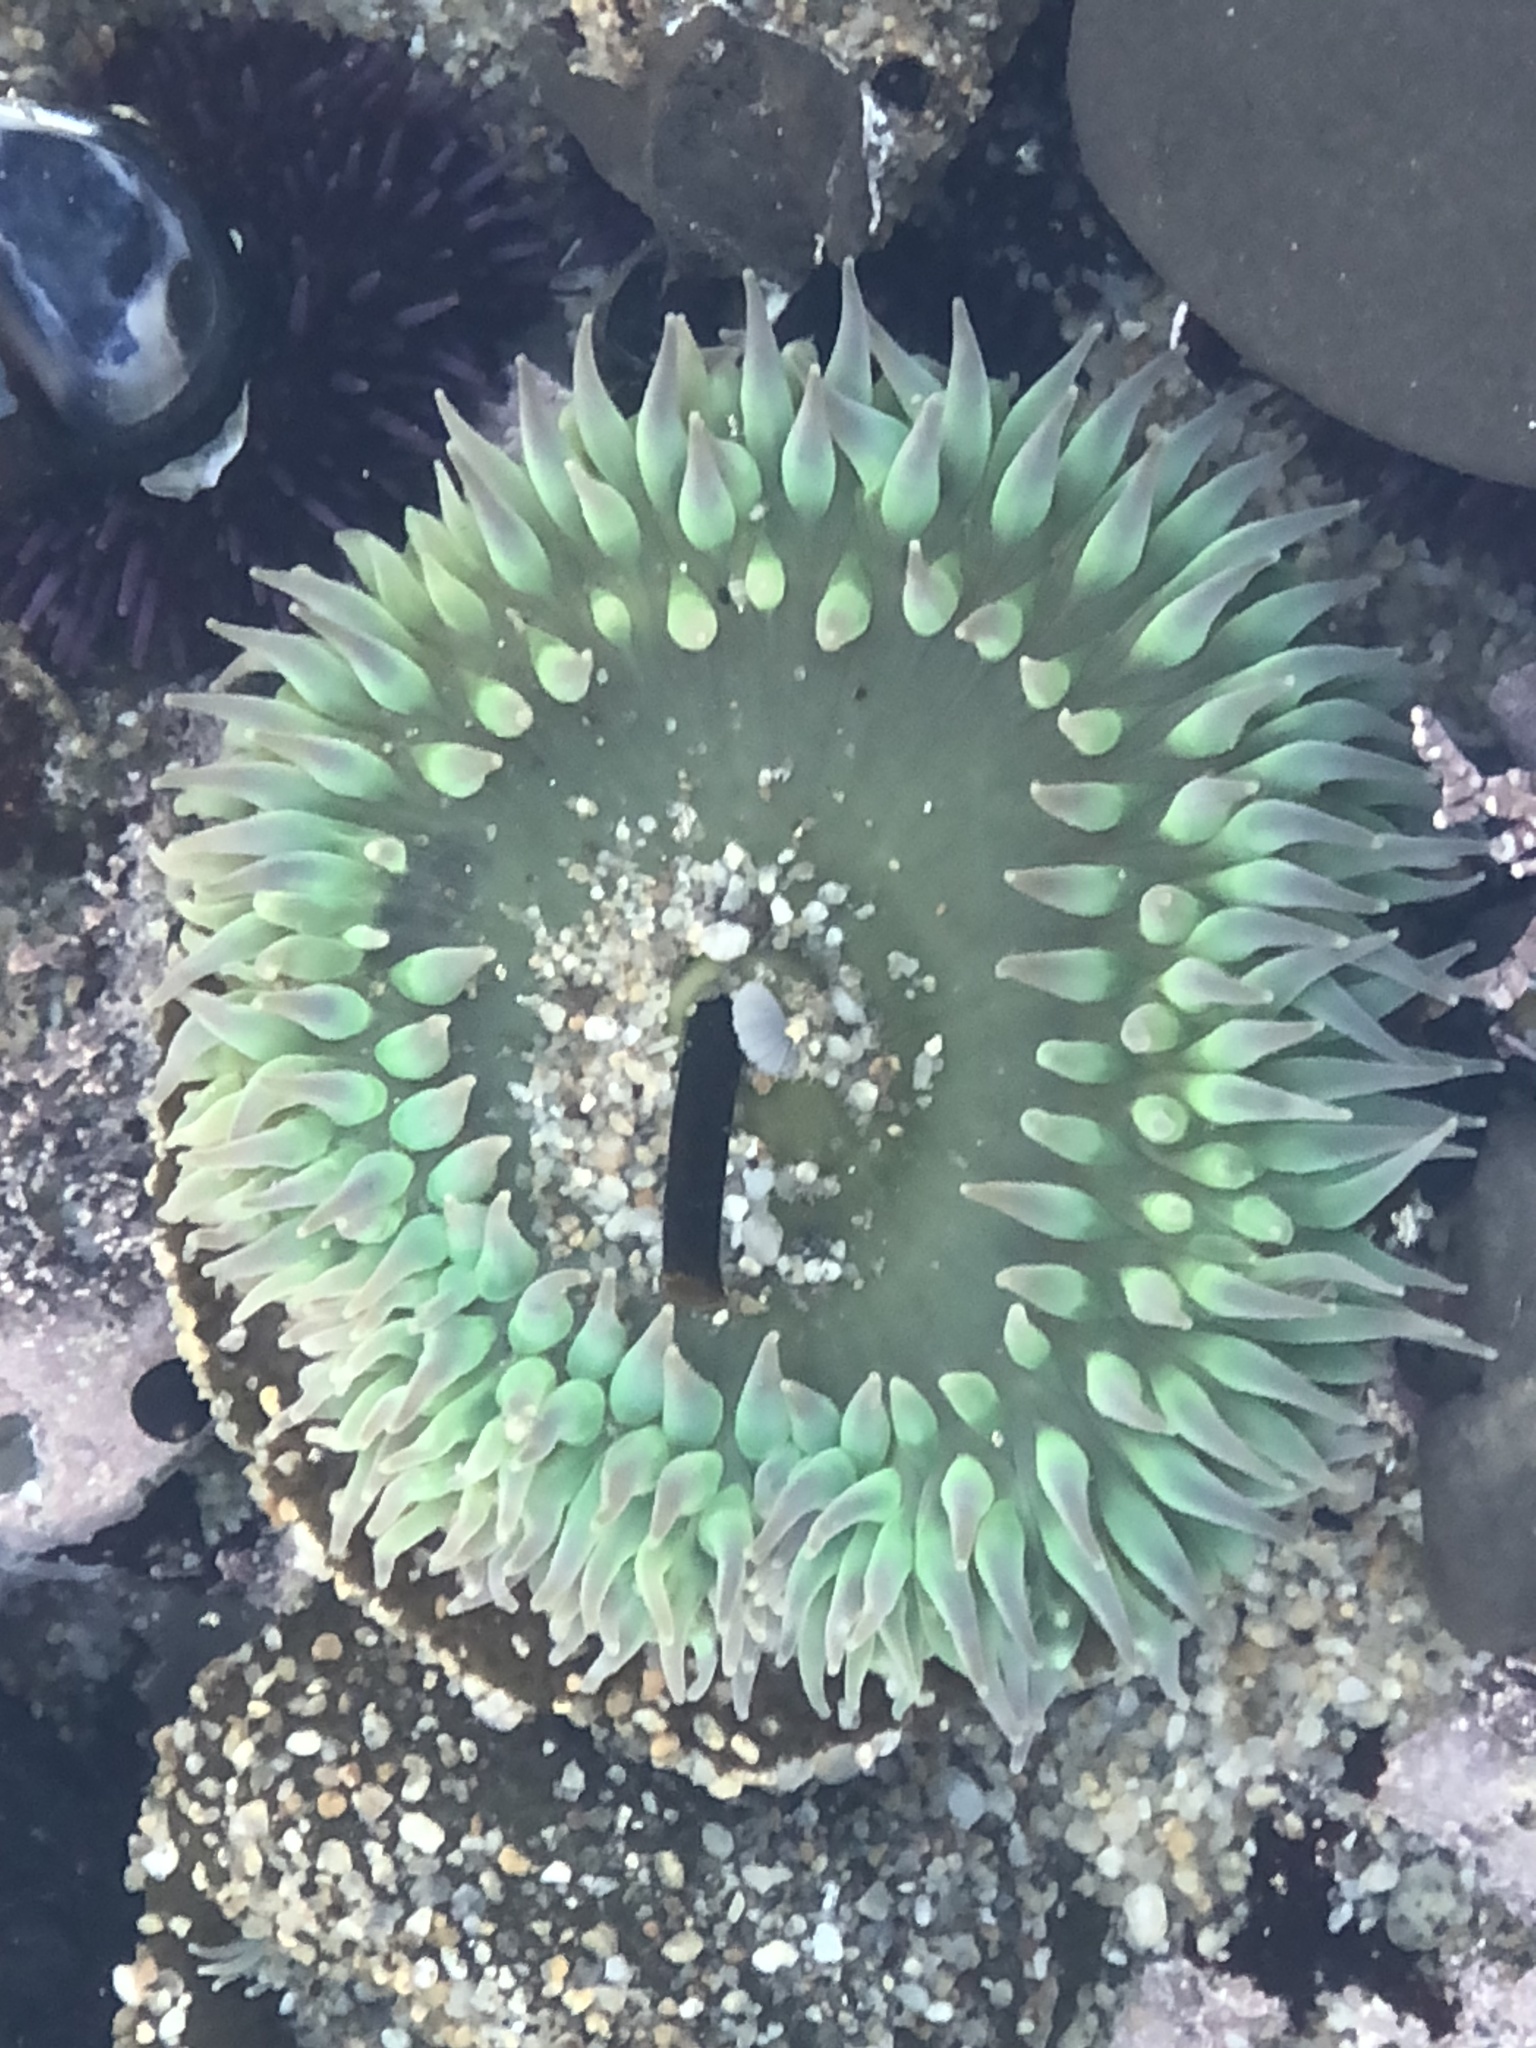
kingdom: Animalia
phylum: Cnidaria
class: Anthozoa
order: Actiniaria
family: Actiniidae
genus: Anthopleura
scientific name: Anthopleura xanthogrammica
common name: Giant green anemone
